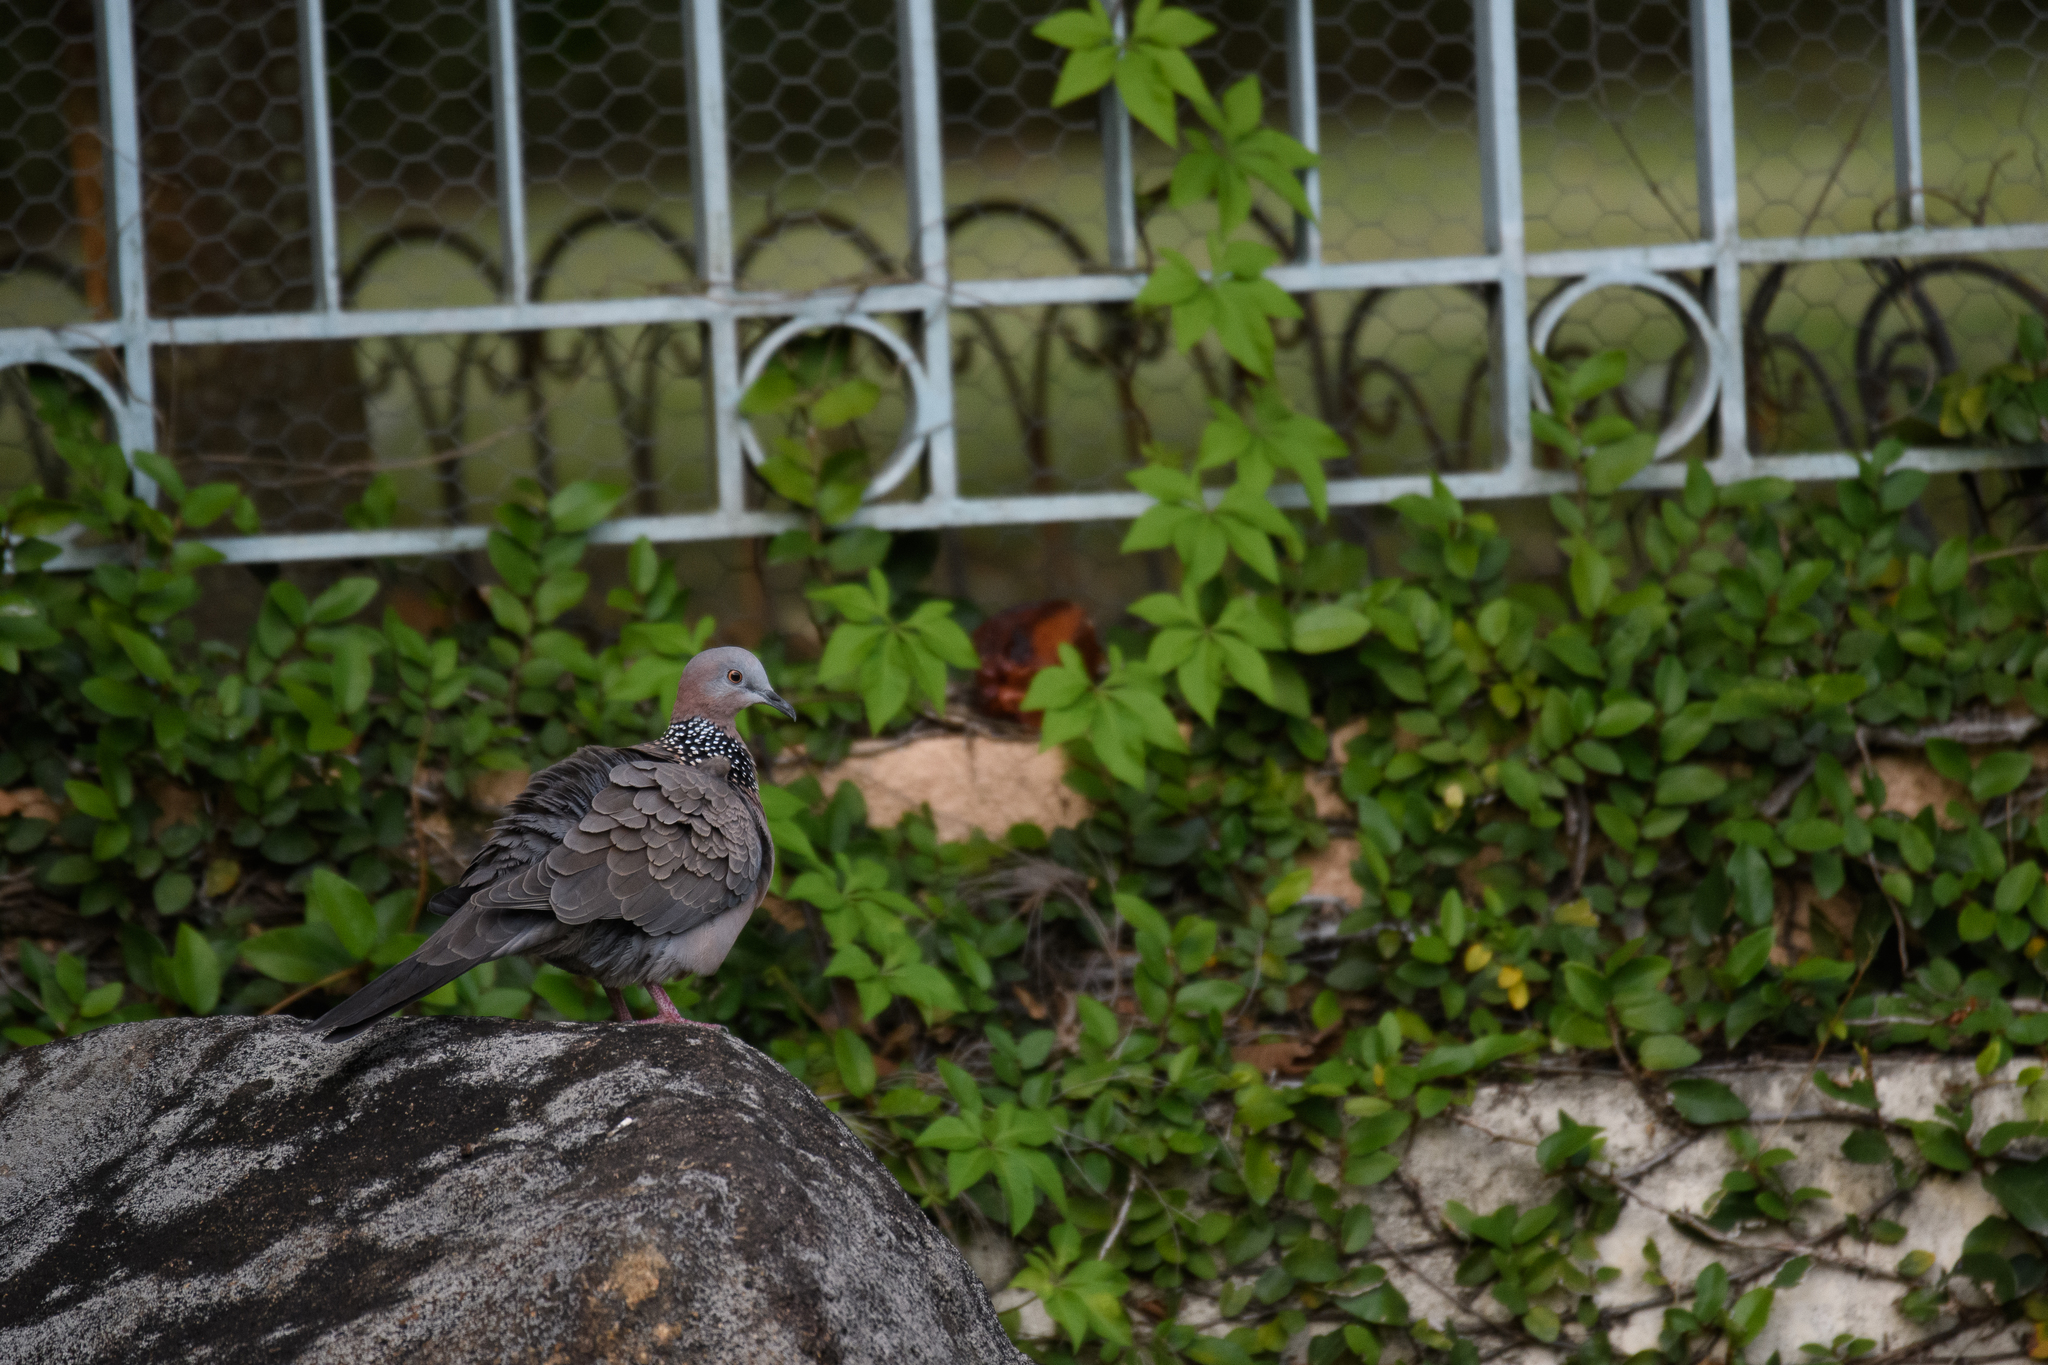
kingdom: Animalia
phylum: Chordata
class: Aves
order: Columbiformes
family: Columbidae
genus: Spilopelia
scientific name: Spilopelia chinensis
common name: Spotted dove
